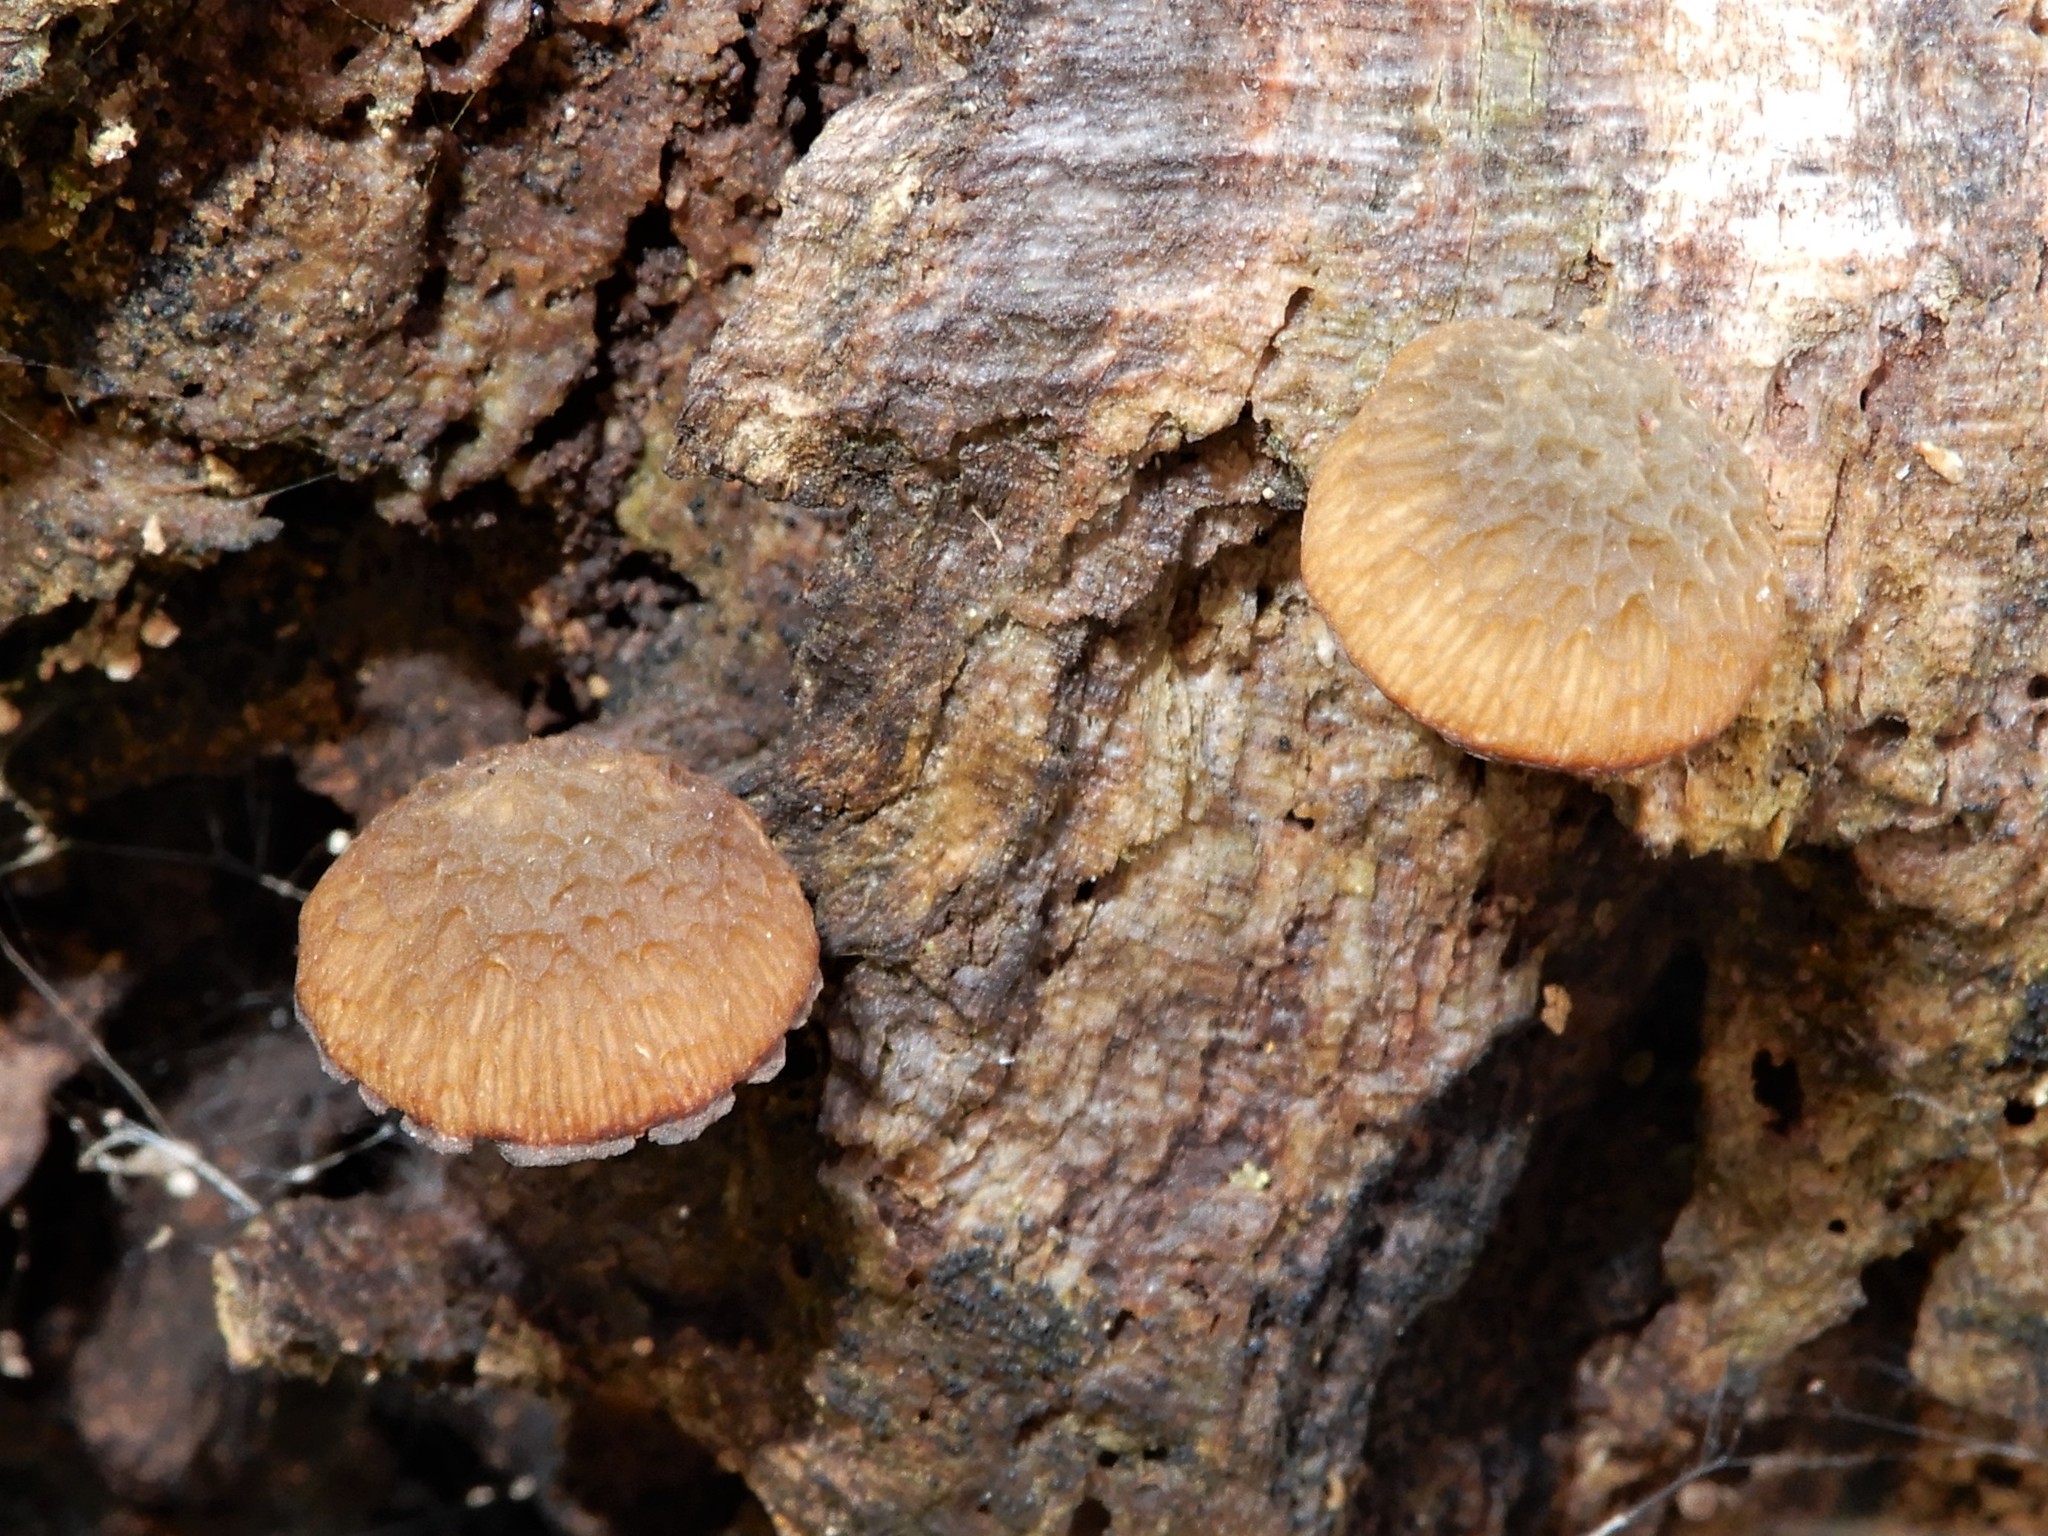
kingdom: Fungi
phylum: Basidiomycota
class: Agaricomycetes
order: Agaricales
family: Crepidotaceae
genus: Simocybe
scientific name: Simocybe phlebophora
